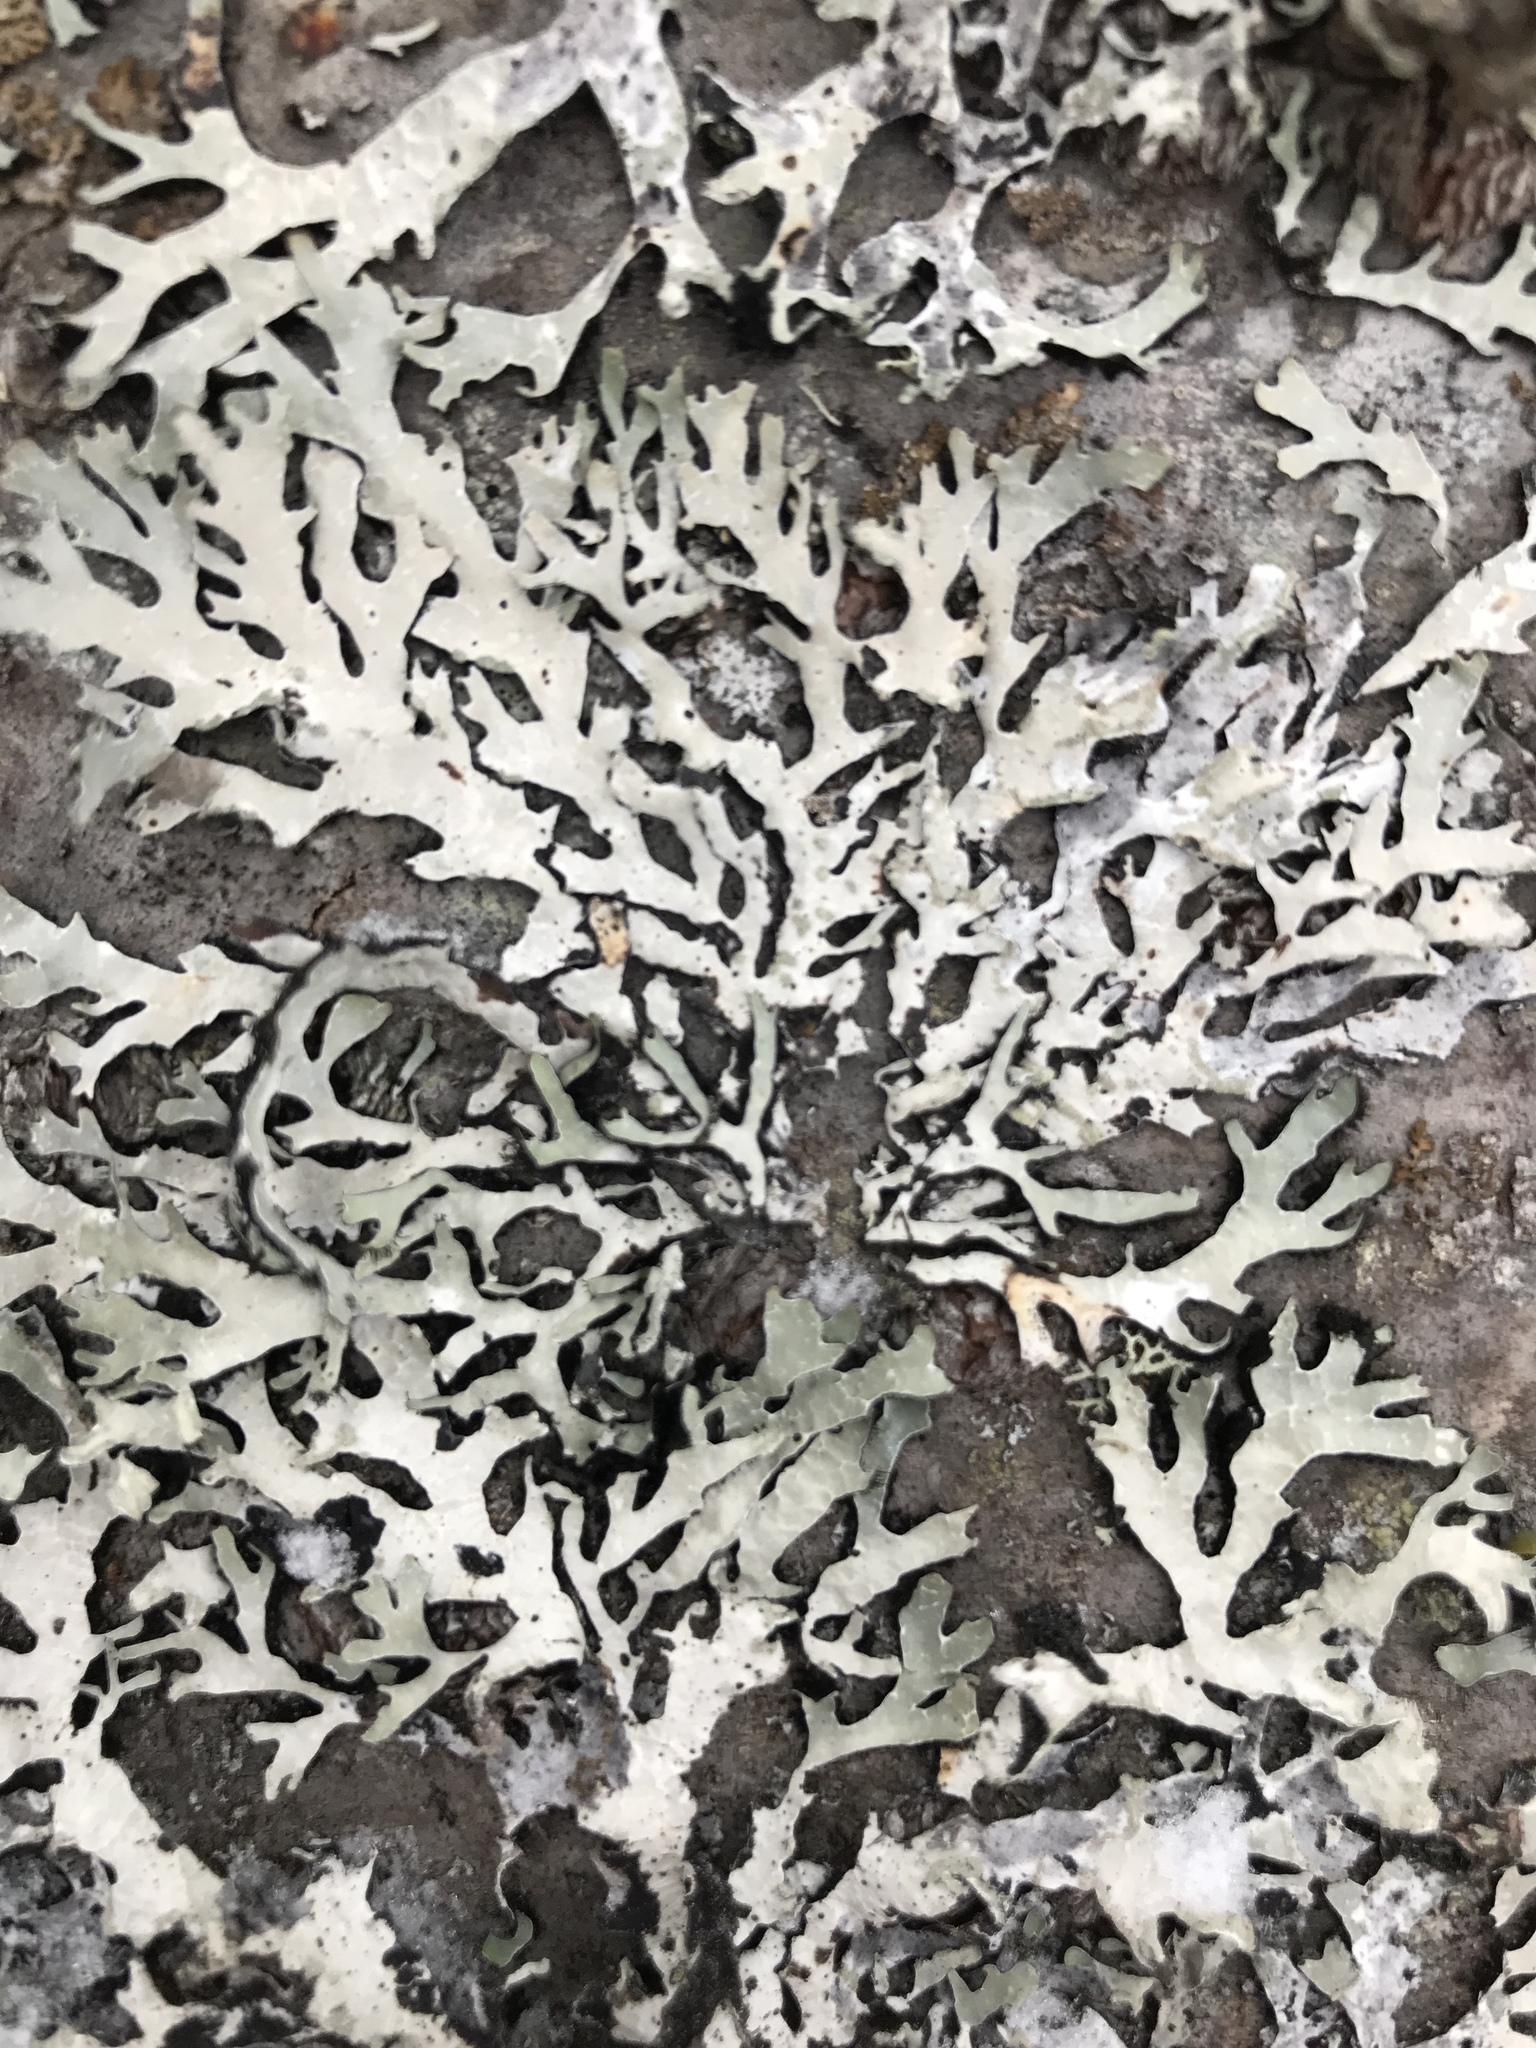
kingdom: Fungi
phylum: Ascomycota
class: Lecanoromycetes
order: Lecanorales
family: Parmeliaceae
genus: Parmelia
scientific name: Parmelia sulcata
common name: Netted shield lichen
